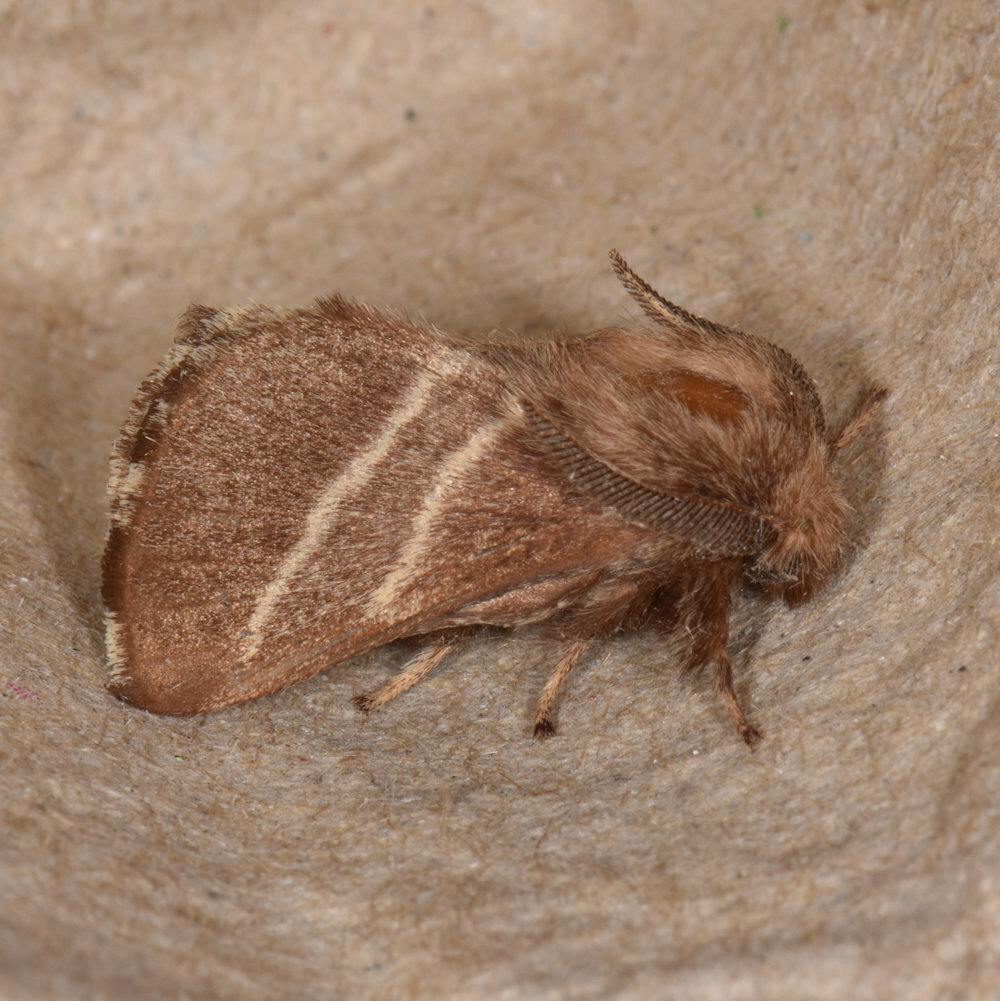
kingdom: Animalia
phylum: Arthropoda
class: Insecta
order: Lepidoptera
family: Lasiocampidae
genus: Malacosoma
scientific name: Malacosoma americana
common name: Eastern tent caterpillar moth
